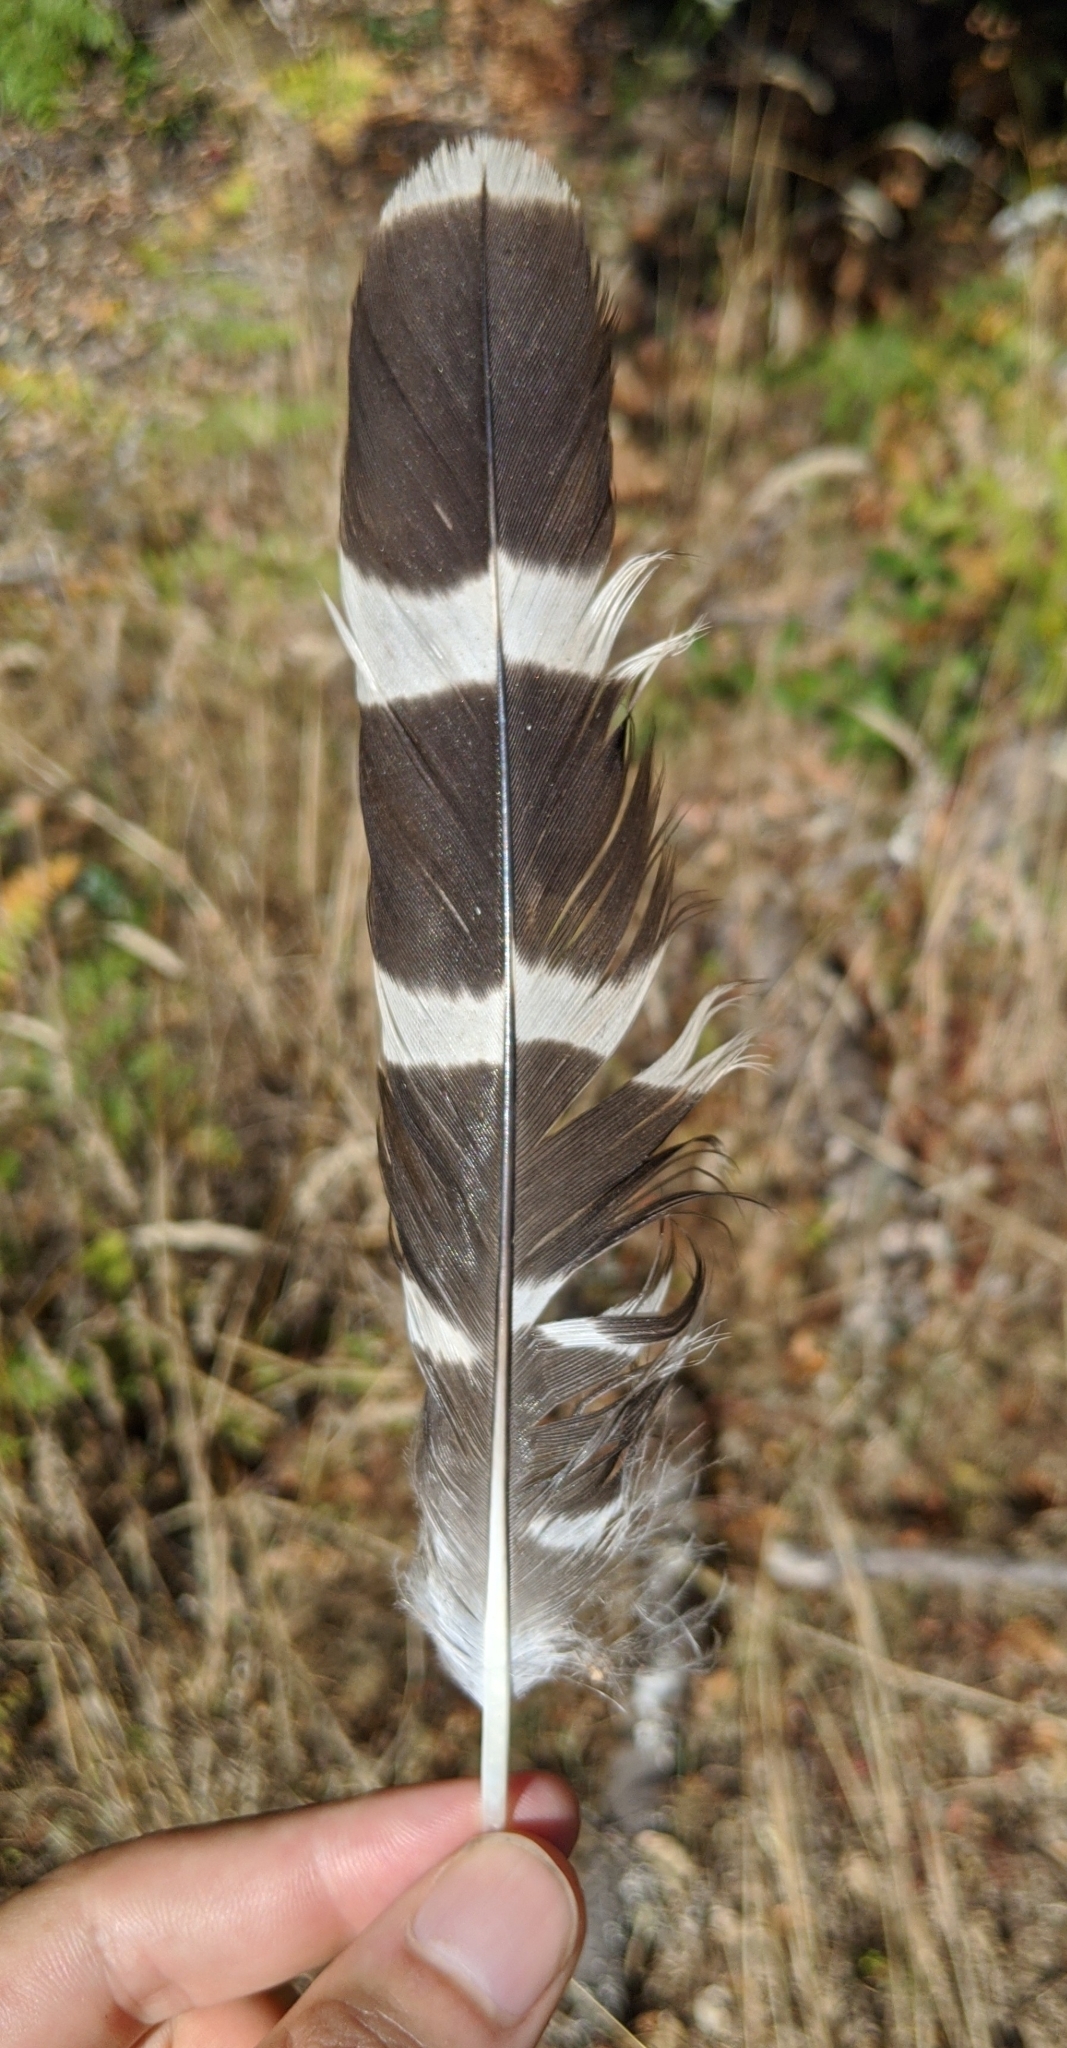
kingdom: Animalia
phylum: Chordata
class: Aves
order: Accipitriformes
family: Accipitridae
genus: Buteo
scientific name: Buteo lineatus
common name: Red-shouldered hawk
